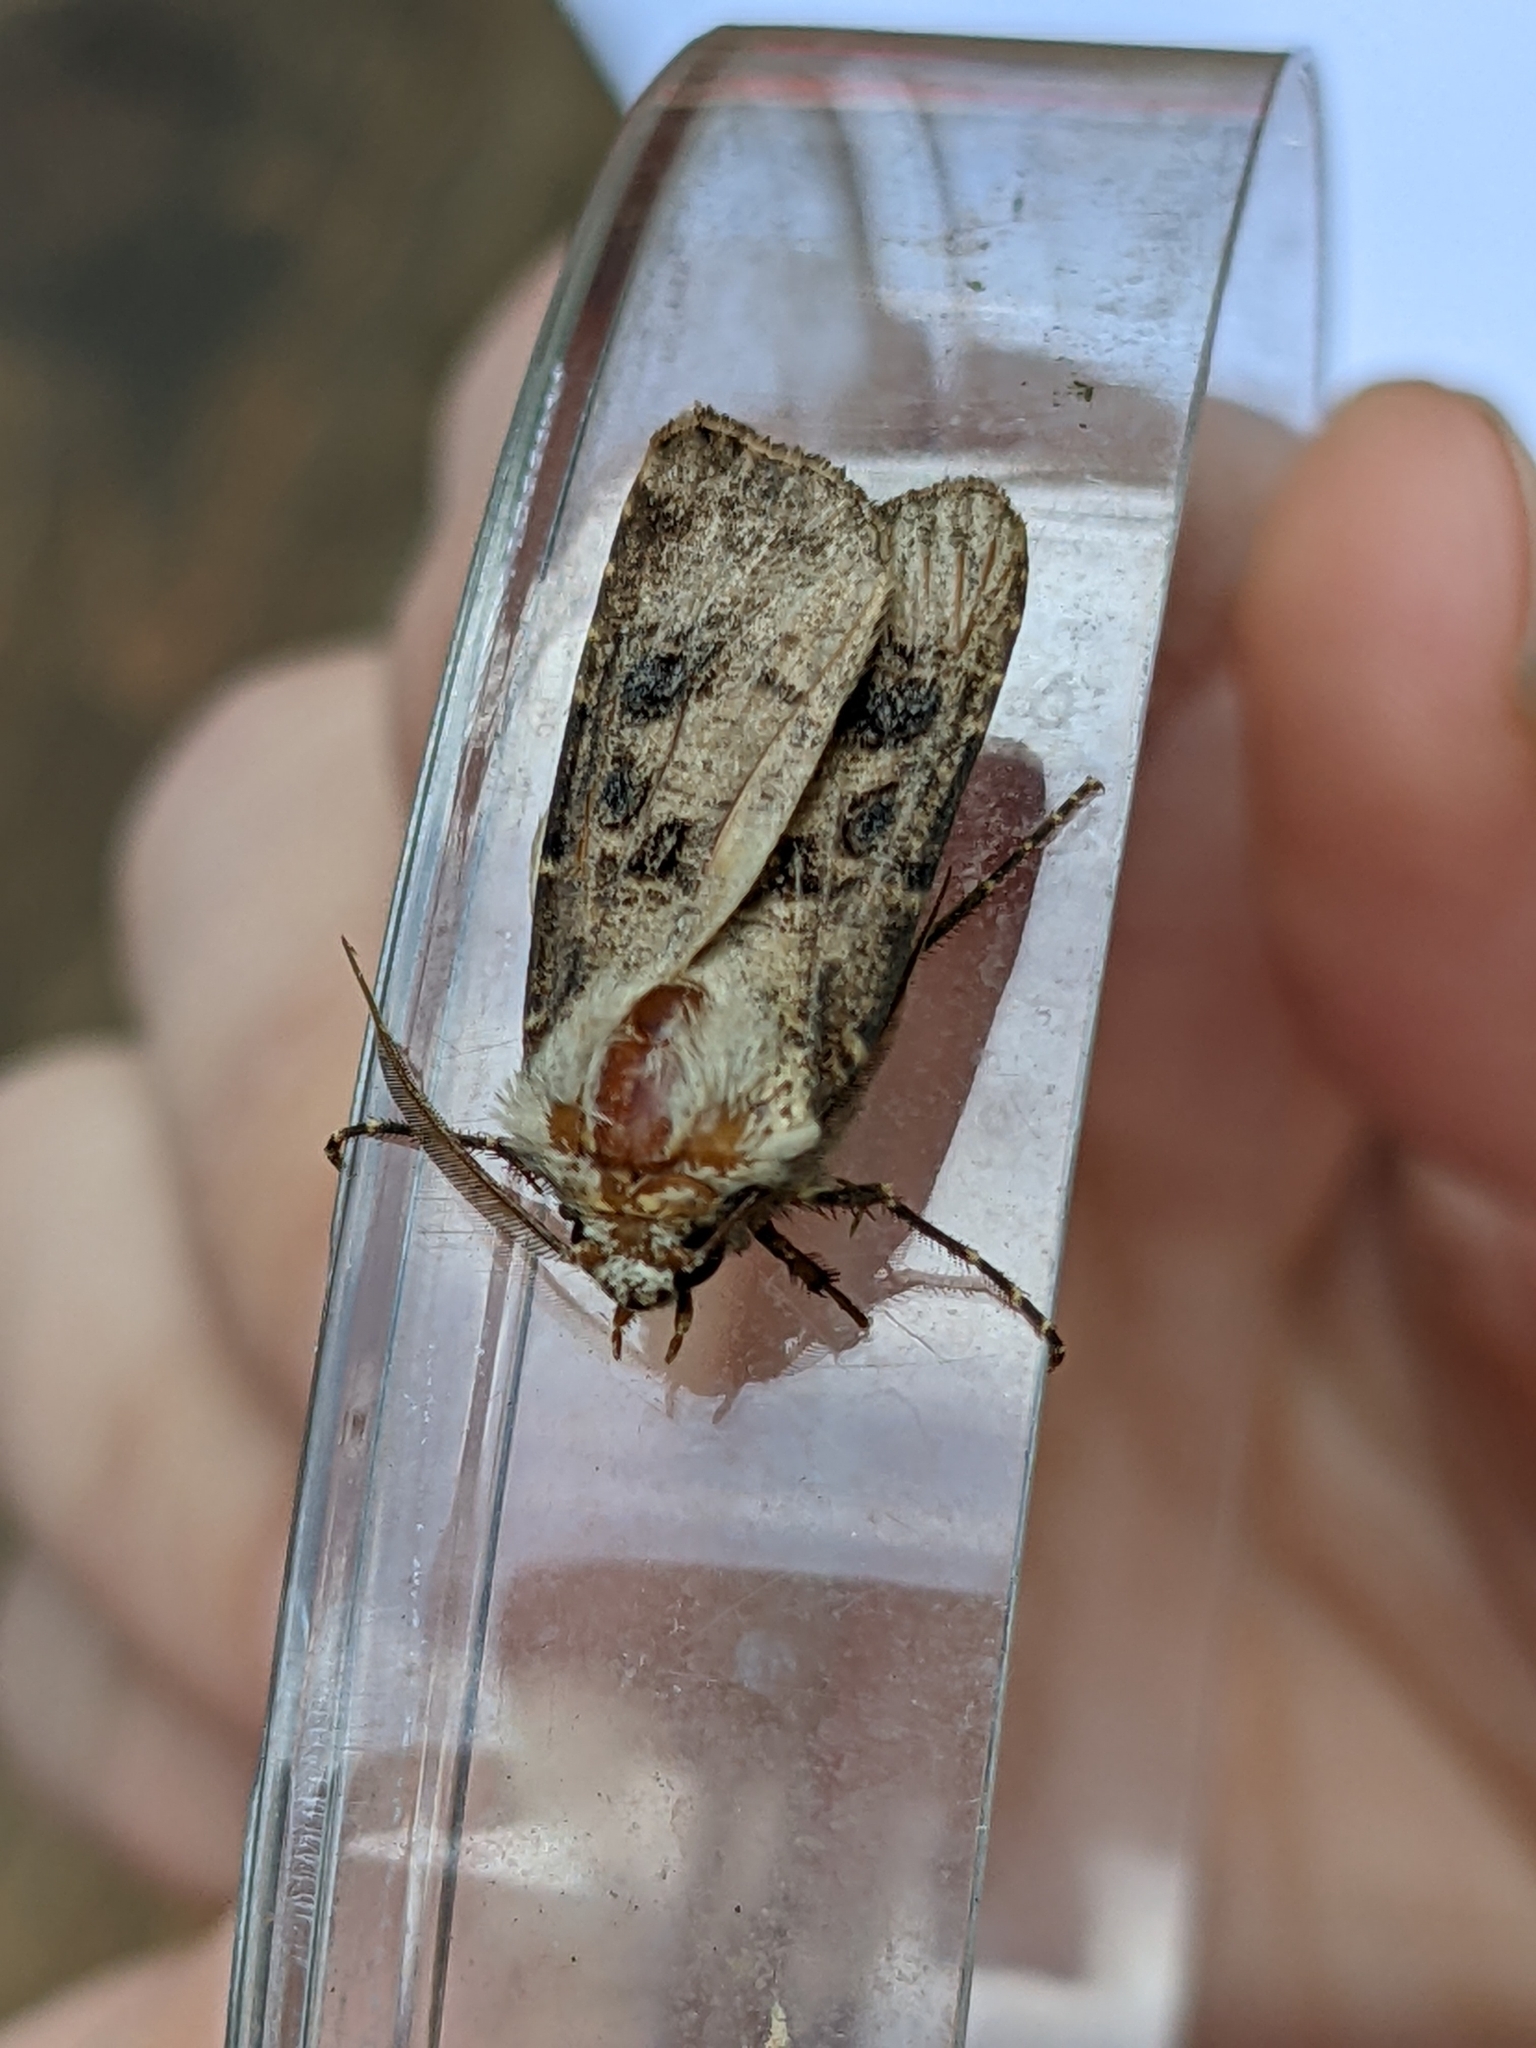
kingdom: Animalia
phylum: Arthropoda
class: Insecta
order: Lepidoptera
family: Noctuidae
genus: Agrotis
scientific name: Agrotis clavis
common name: Heart and club
